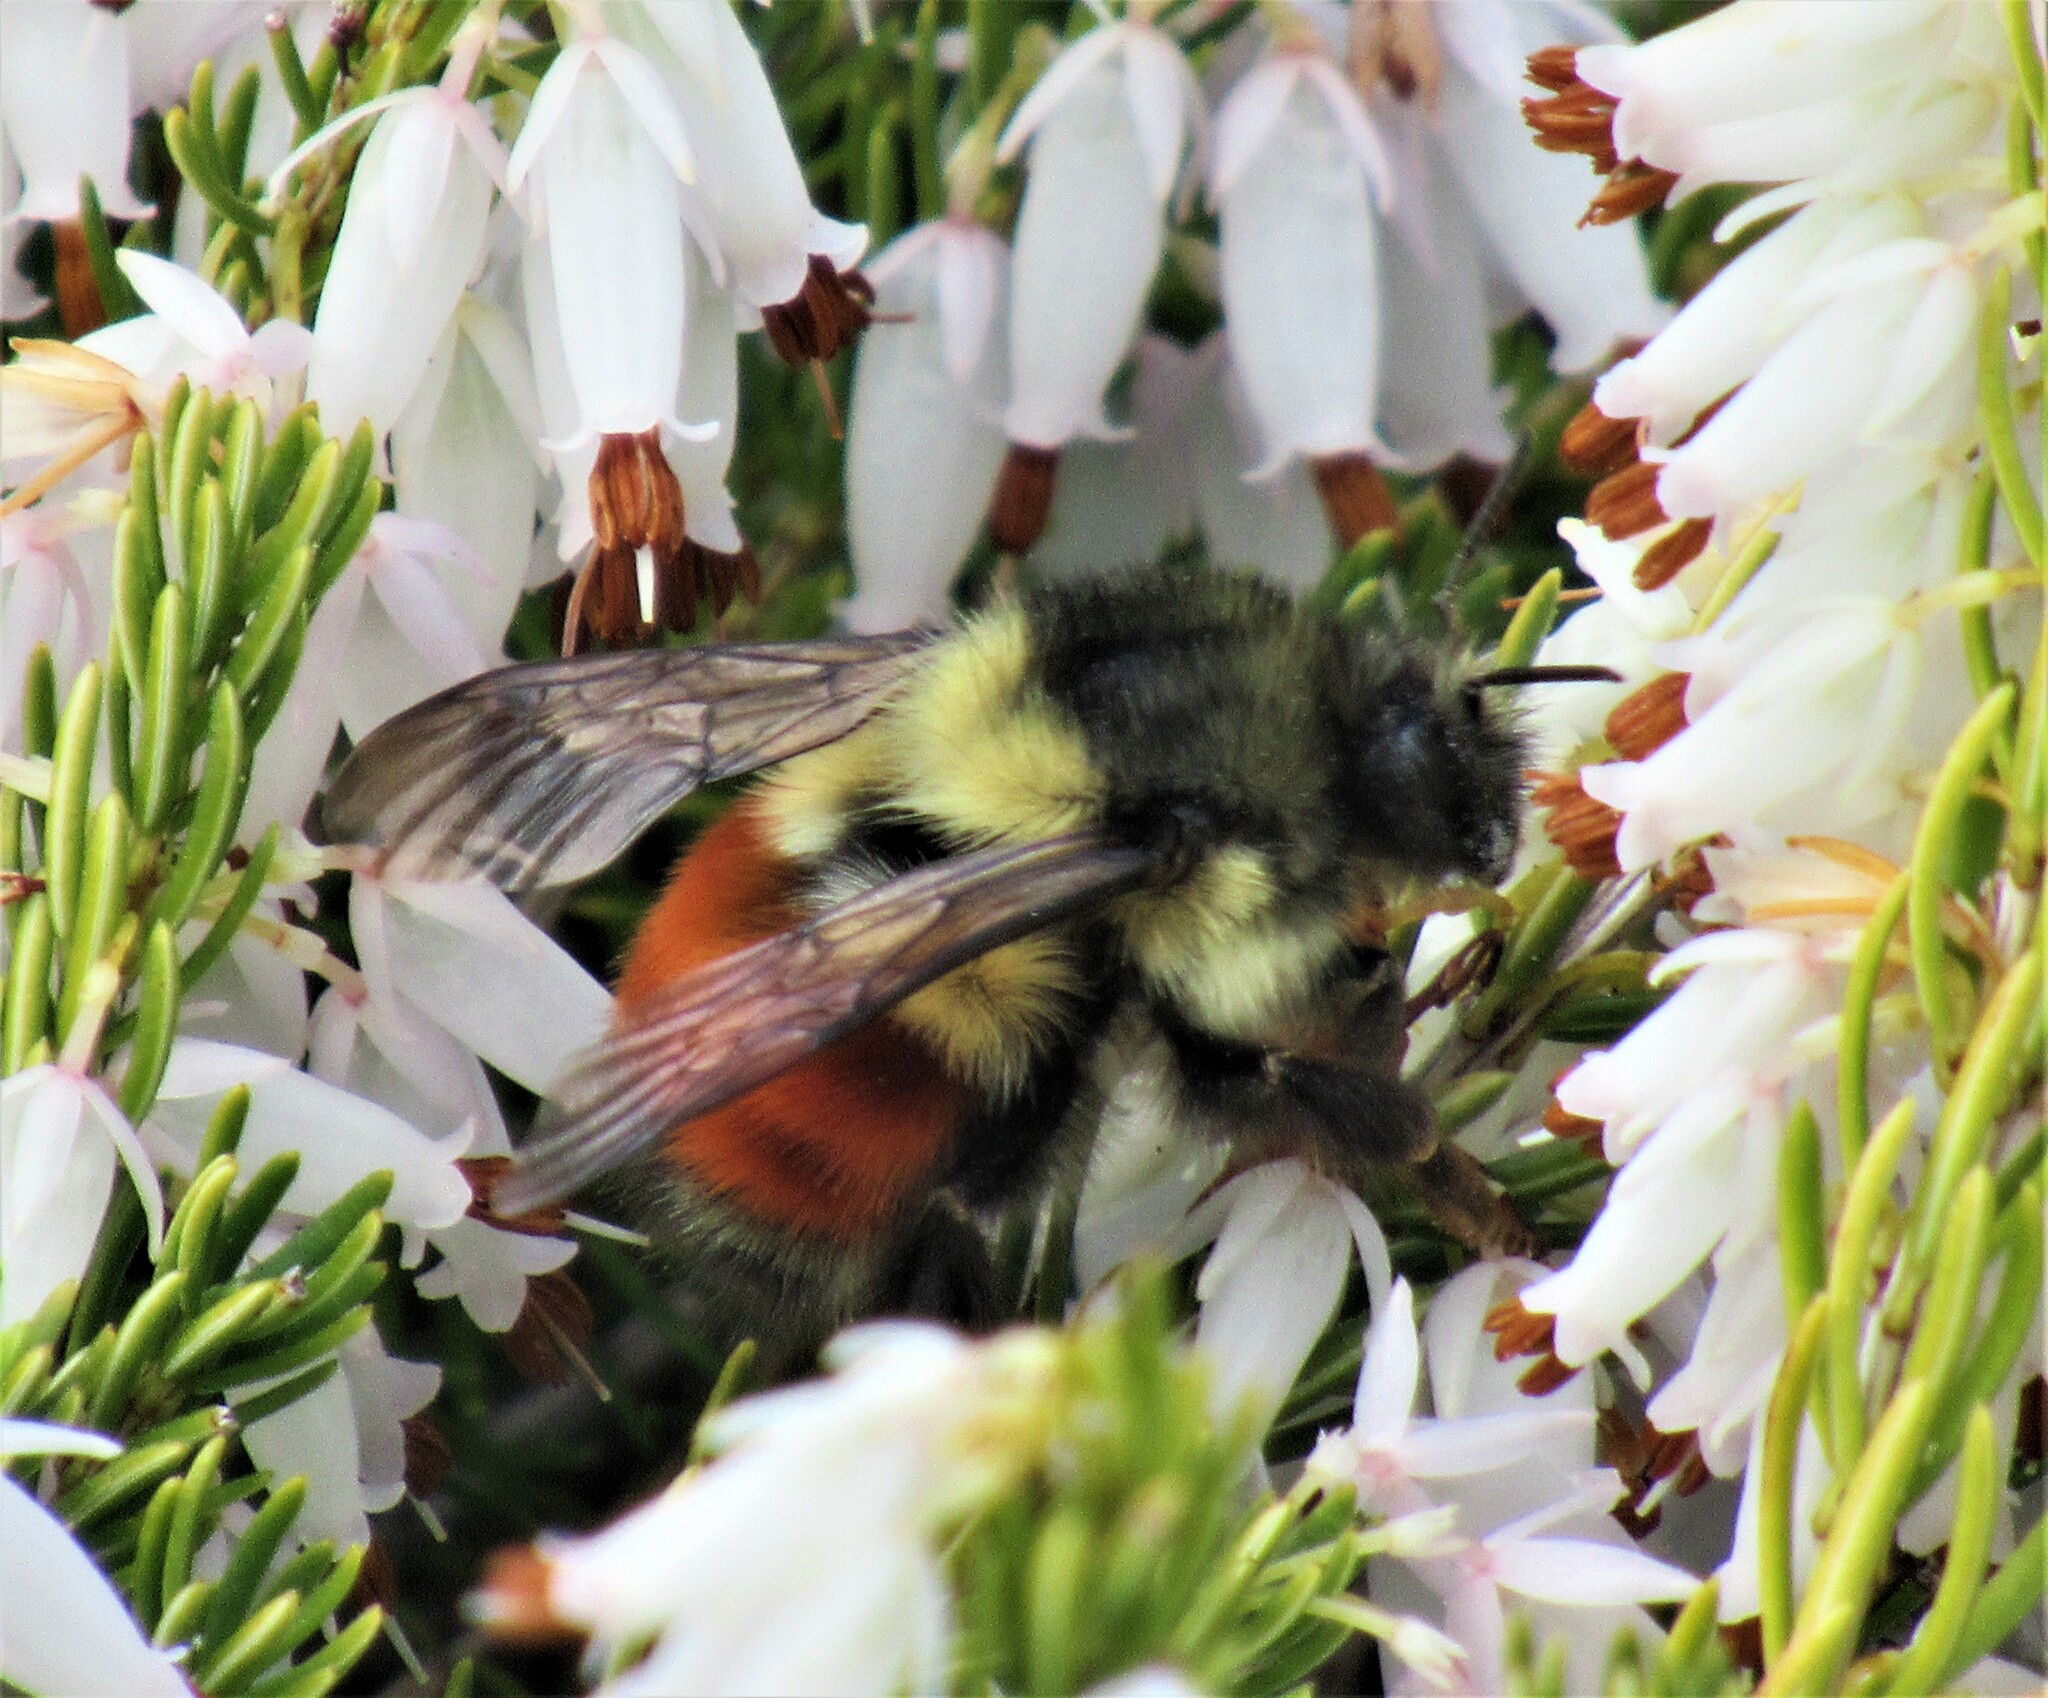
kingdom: Animalia
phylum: Arthropoda
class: Insecta
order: Hymenoptera
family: Apidae
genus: Bombus
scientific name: Bombus melanopygus
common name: Black tail bumble bee
